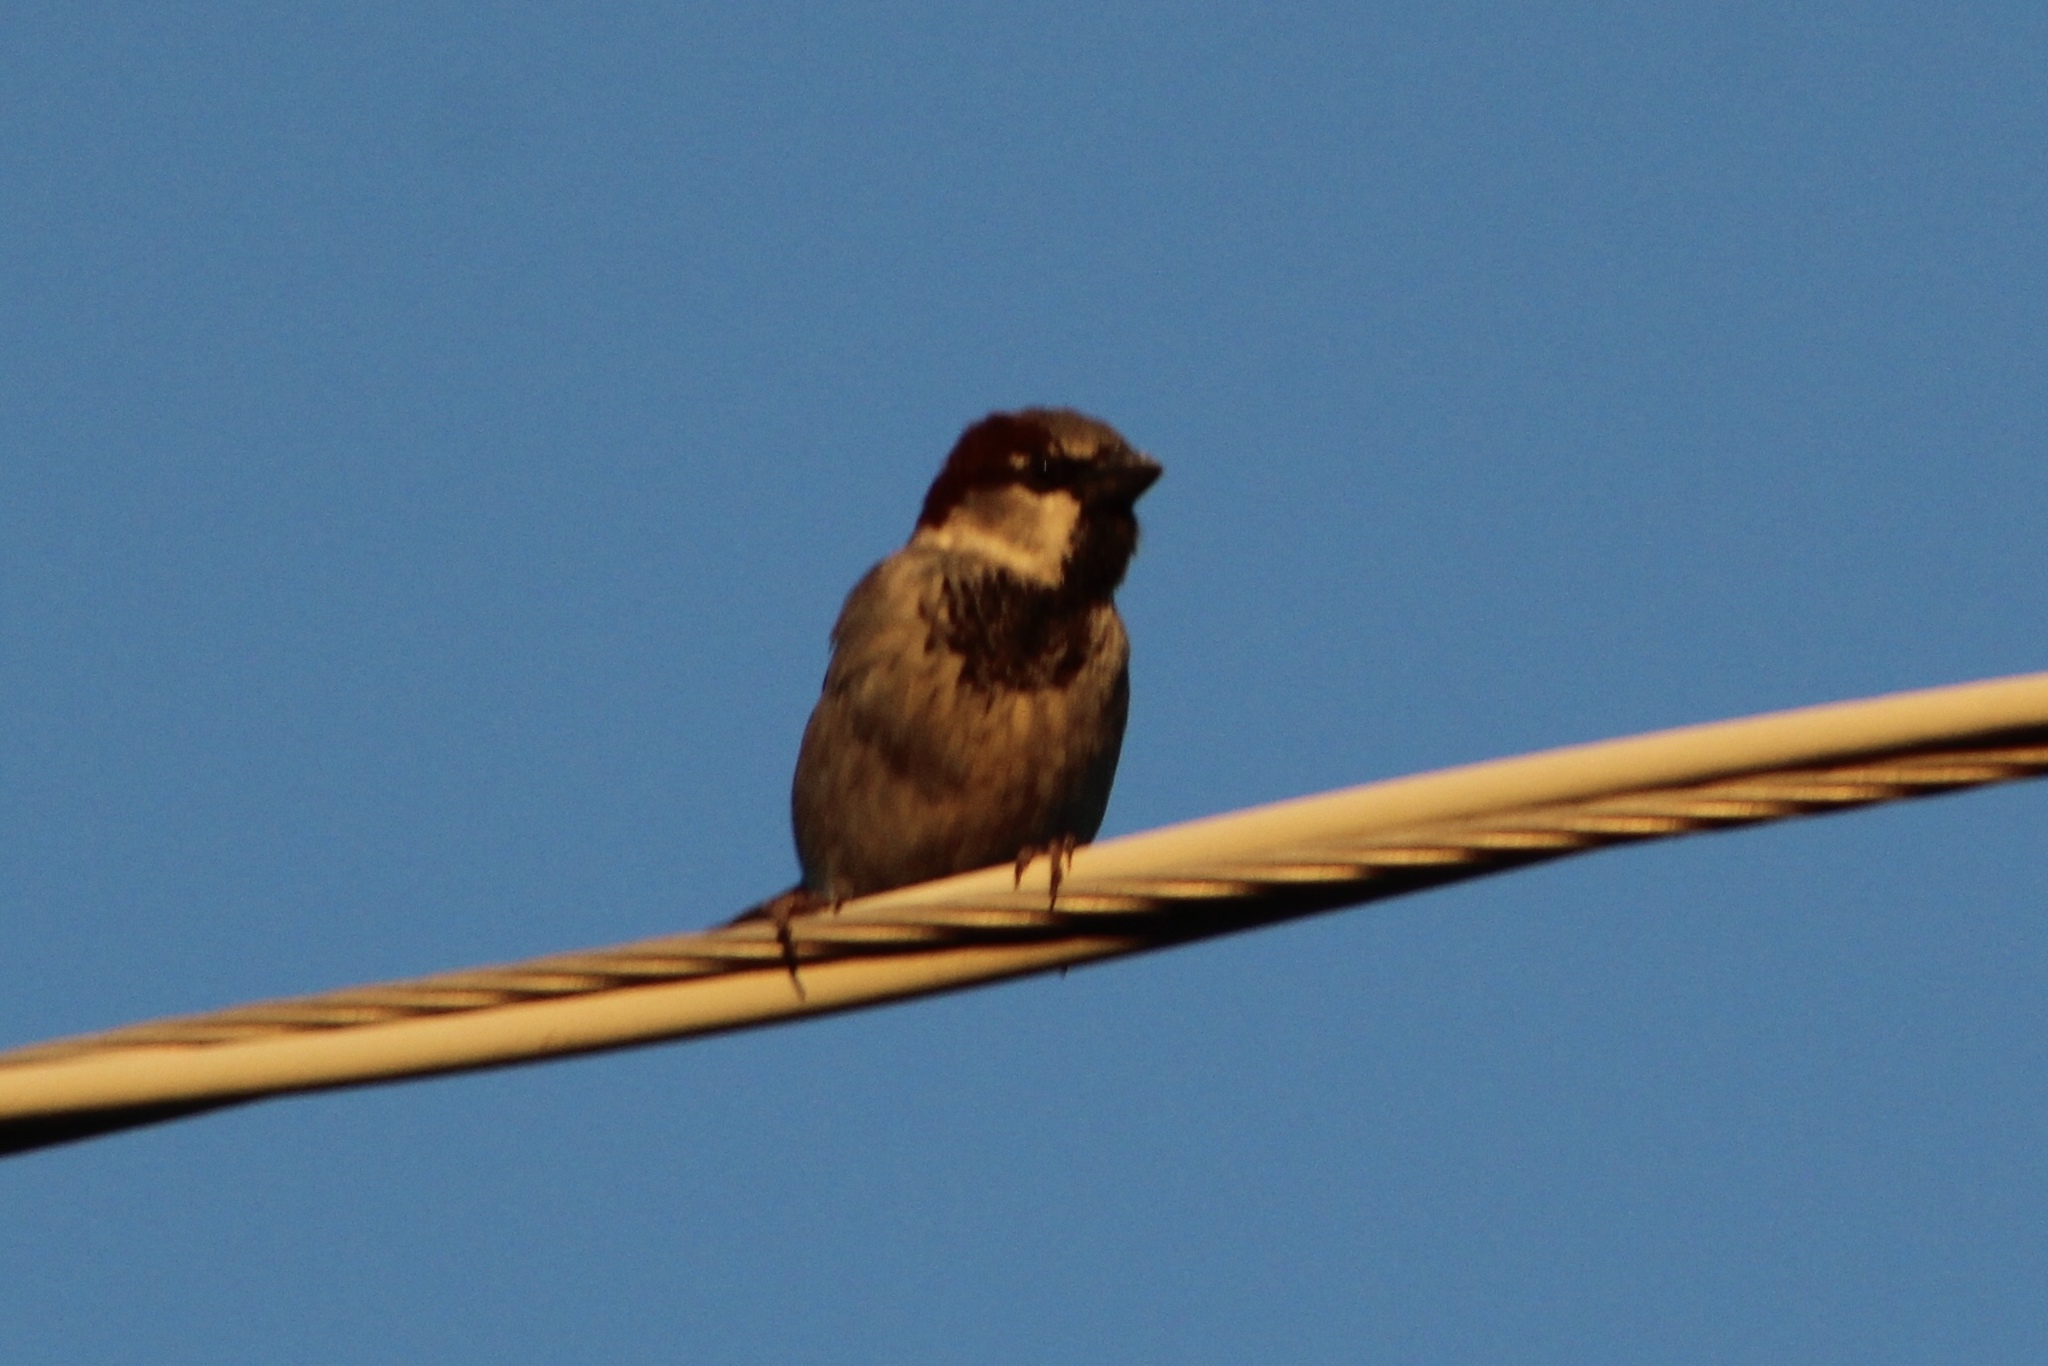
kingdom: Animalia
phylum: Chordata
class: Aves
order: Passeriformes
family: Passeridae
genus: Passer
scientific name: Passer domesticus
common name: House sparrow
